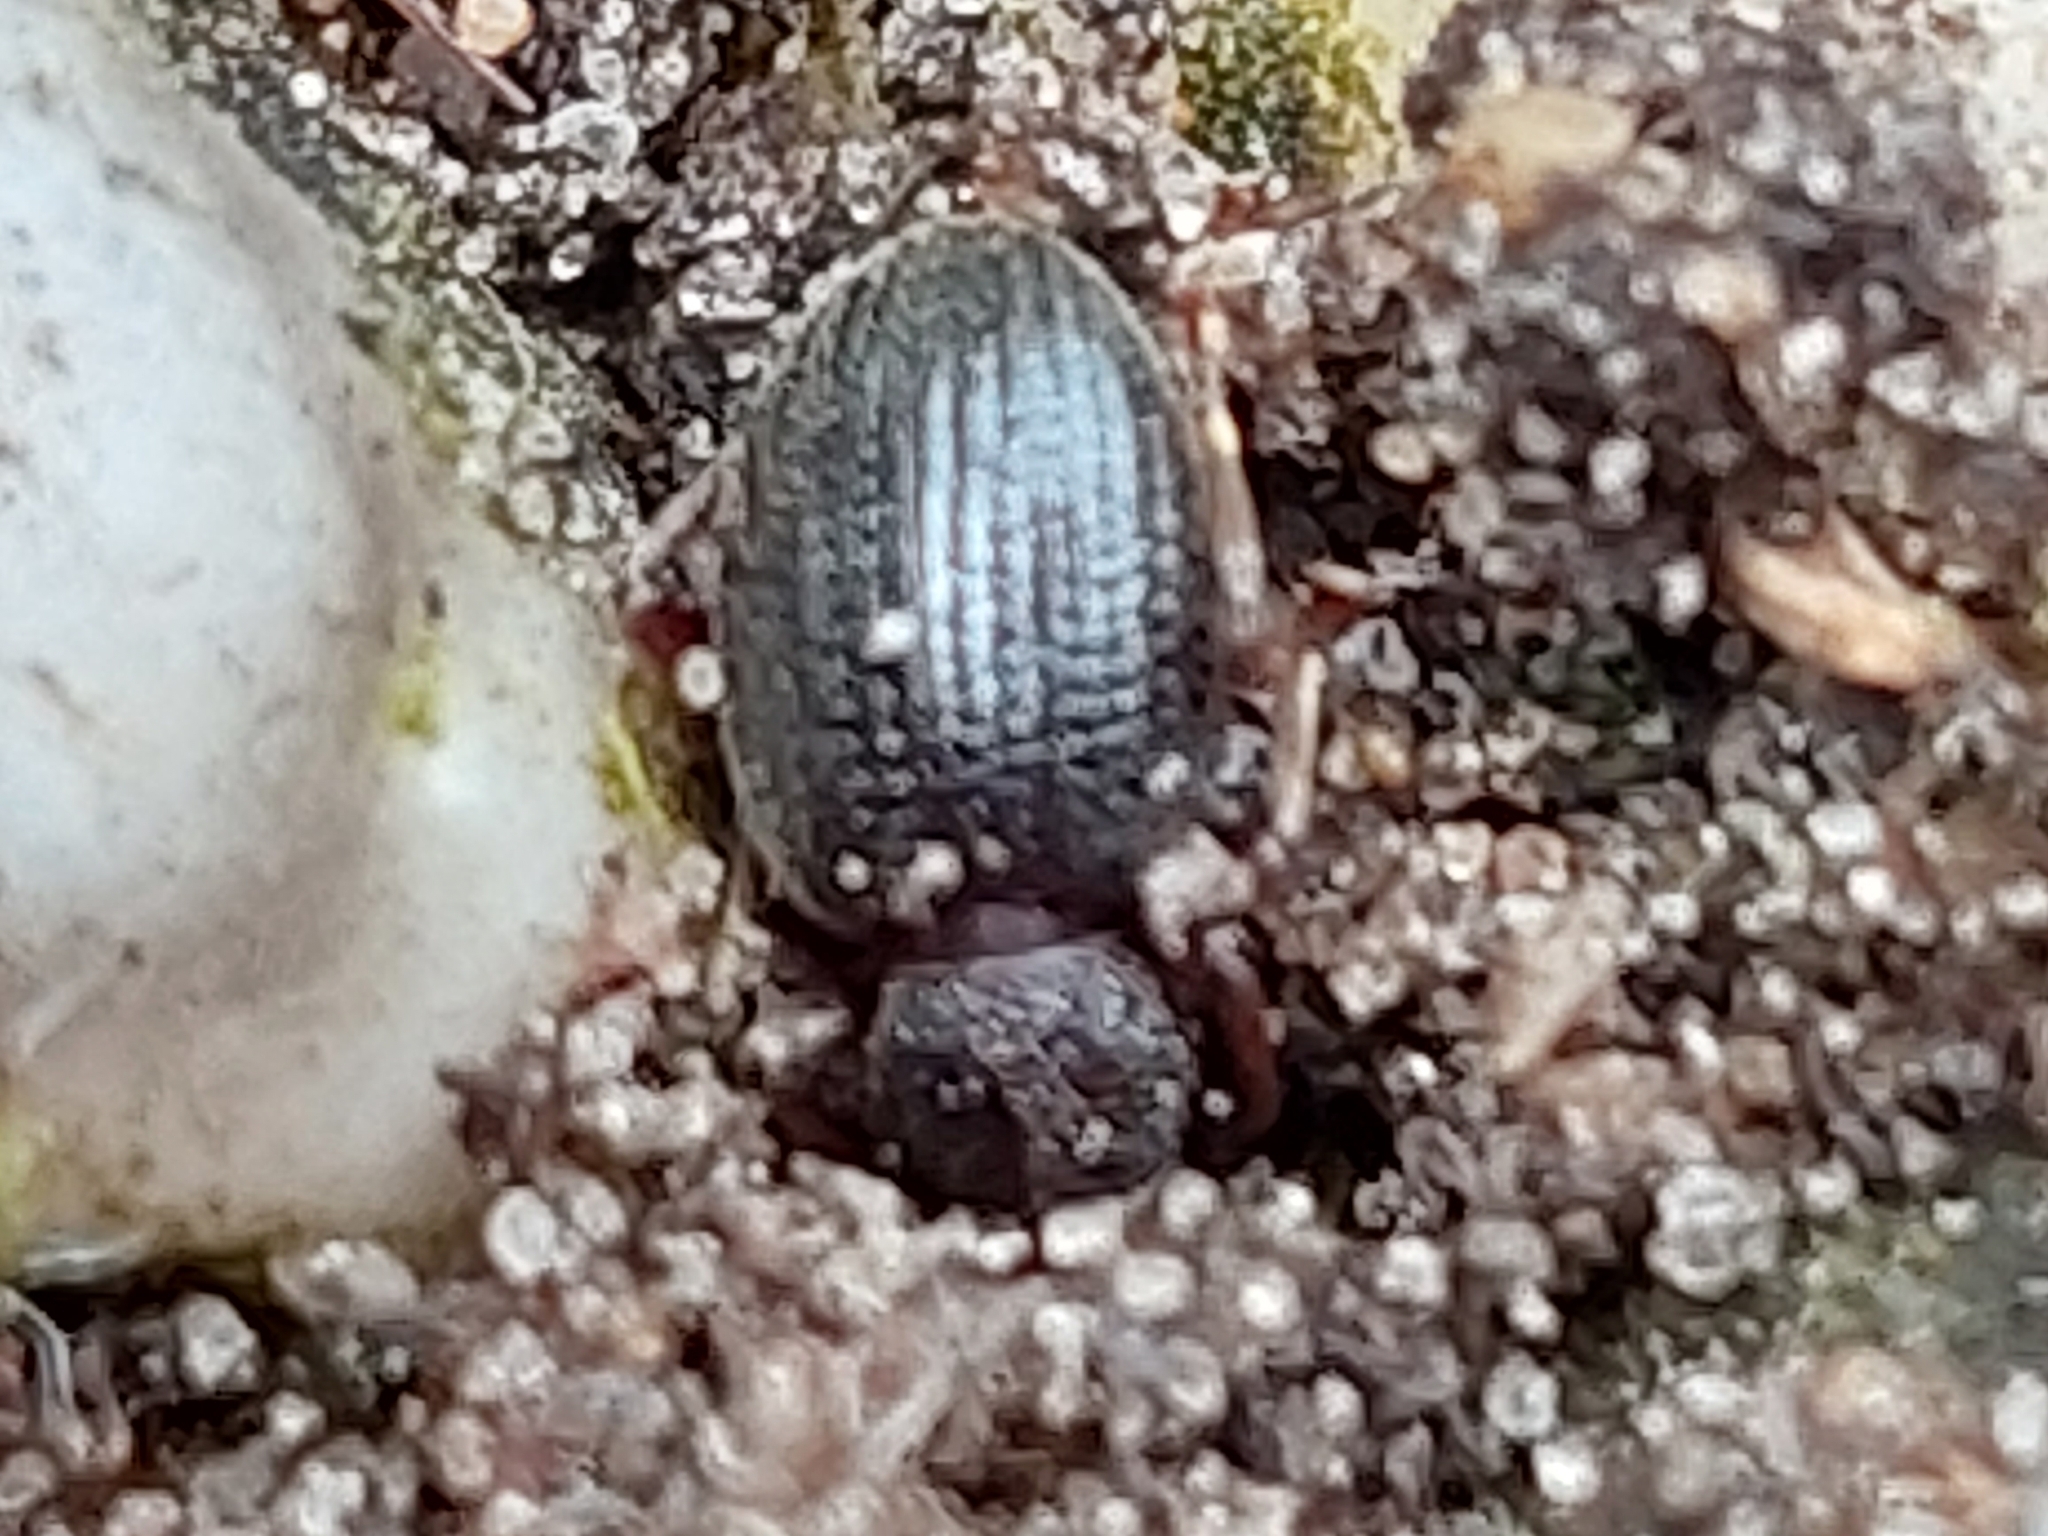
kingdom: Animalia
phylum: Arthropoda
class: Insecta
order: Coleoptera
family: Curculionidae
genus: Otiorhynchus
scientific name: Otiorhynchus ovatus
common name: Strawberry root weevil
